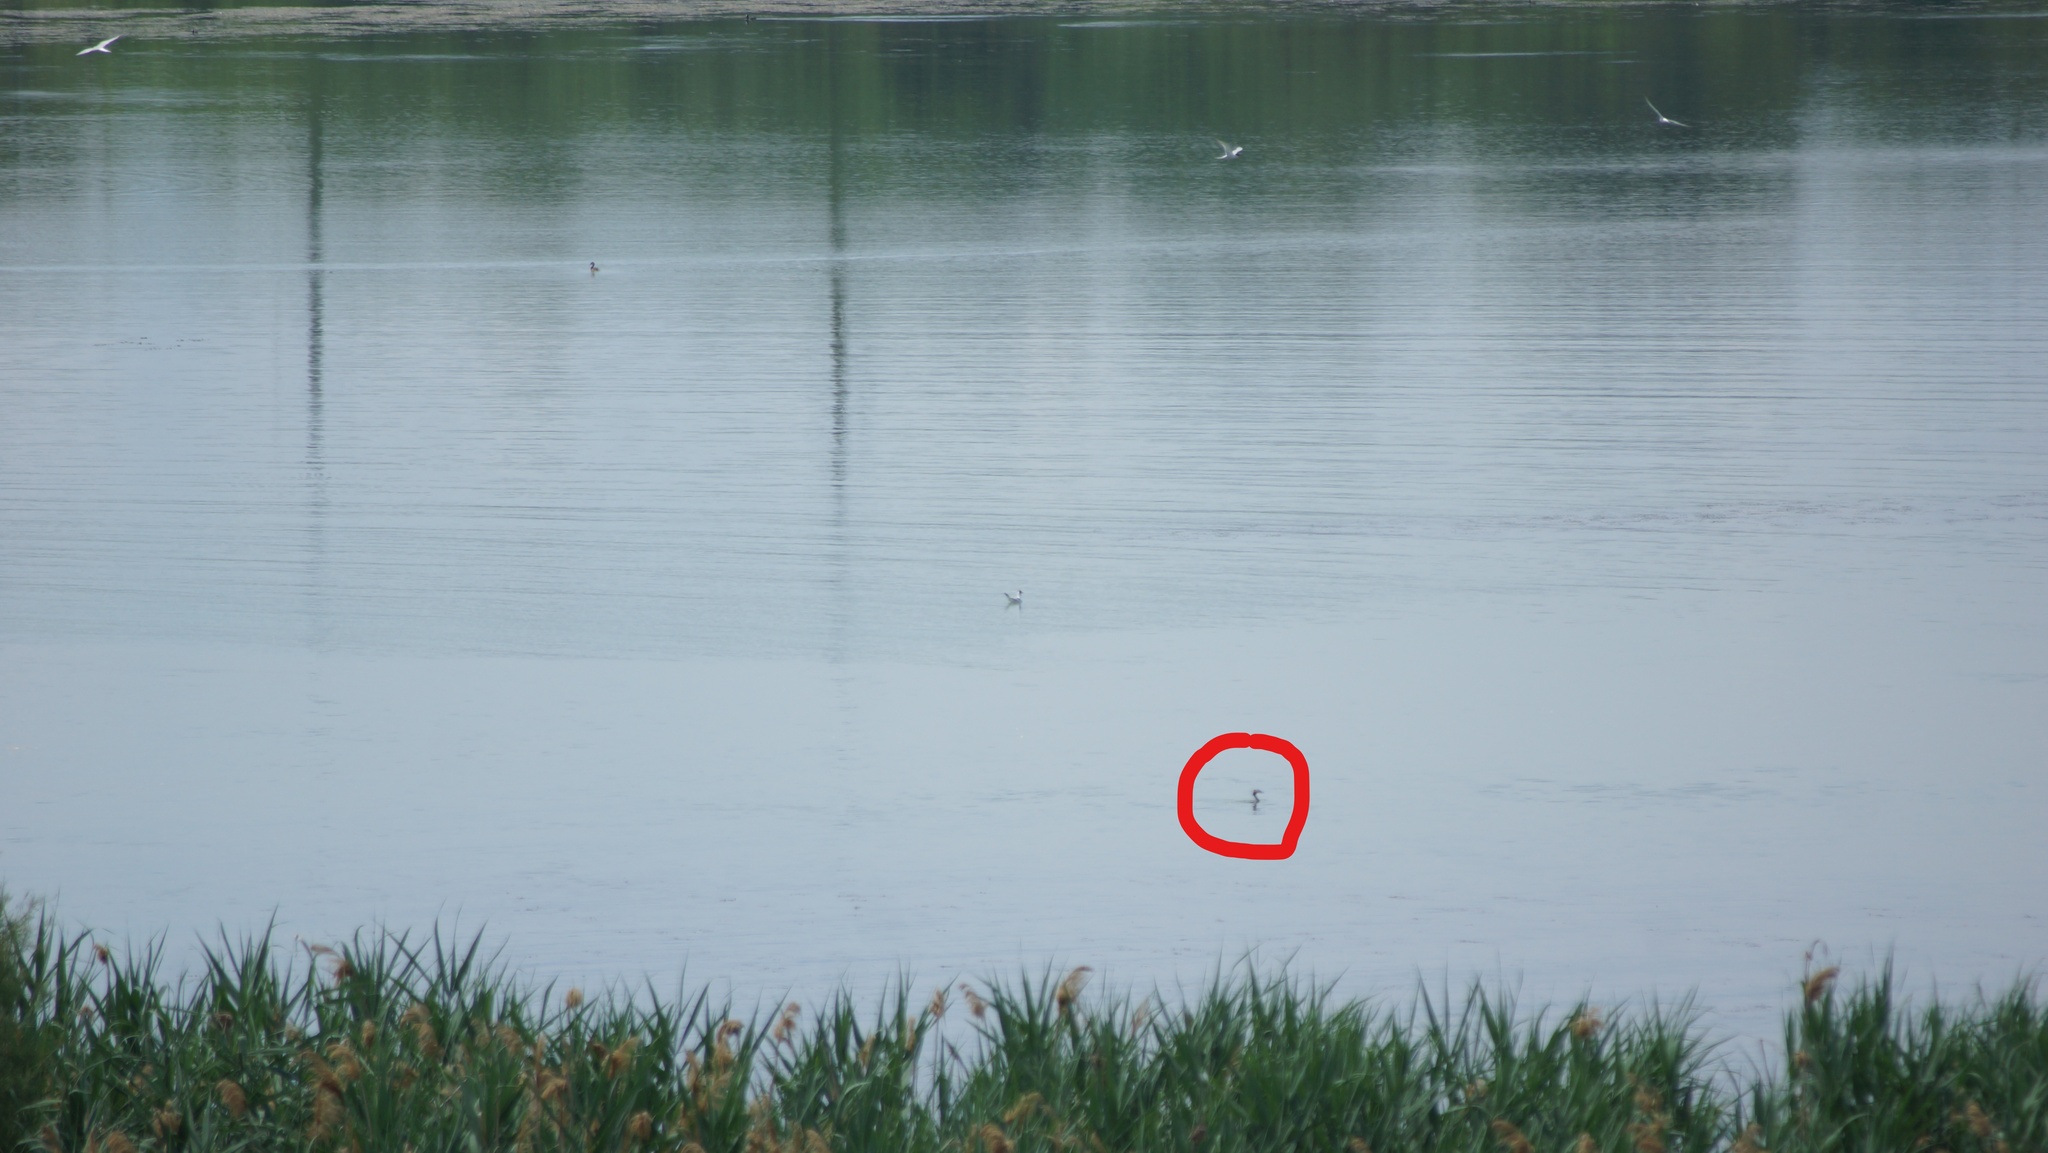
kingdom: Animalia
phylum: Chordata
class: Aves
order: Podicipediformes
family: Podicipedidae
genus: Podiceps
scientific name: Podiceps cristatus
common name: Great crested grebe
